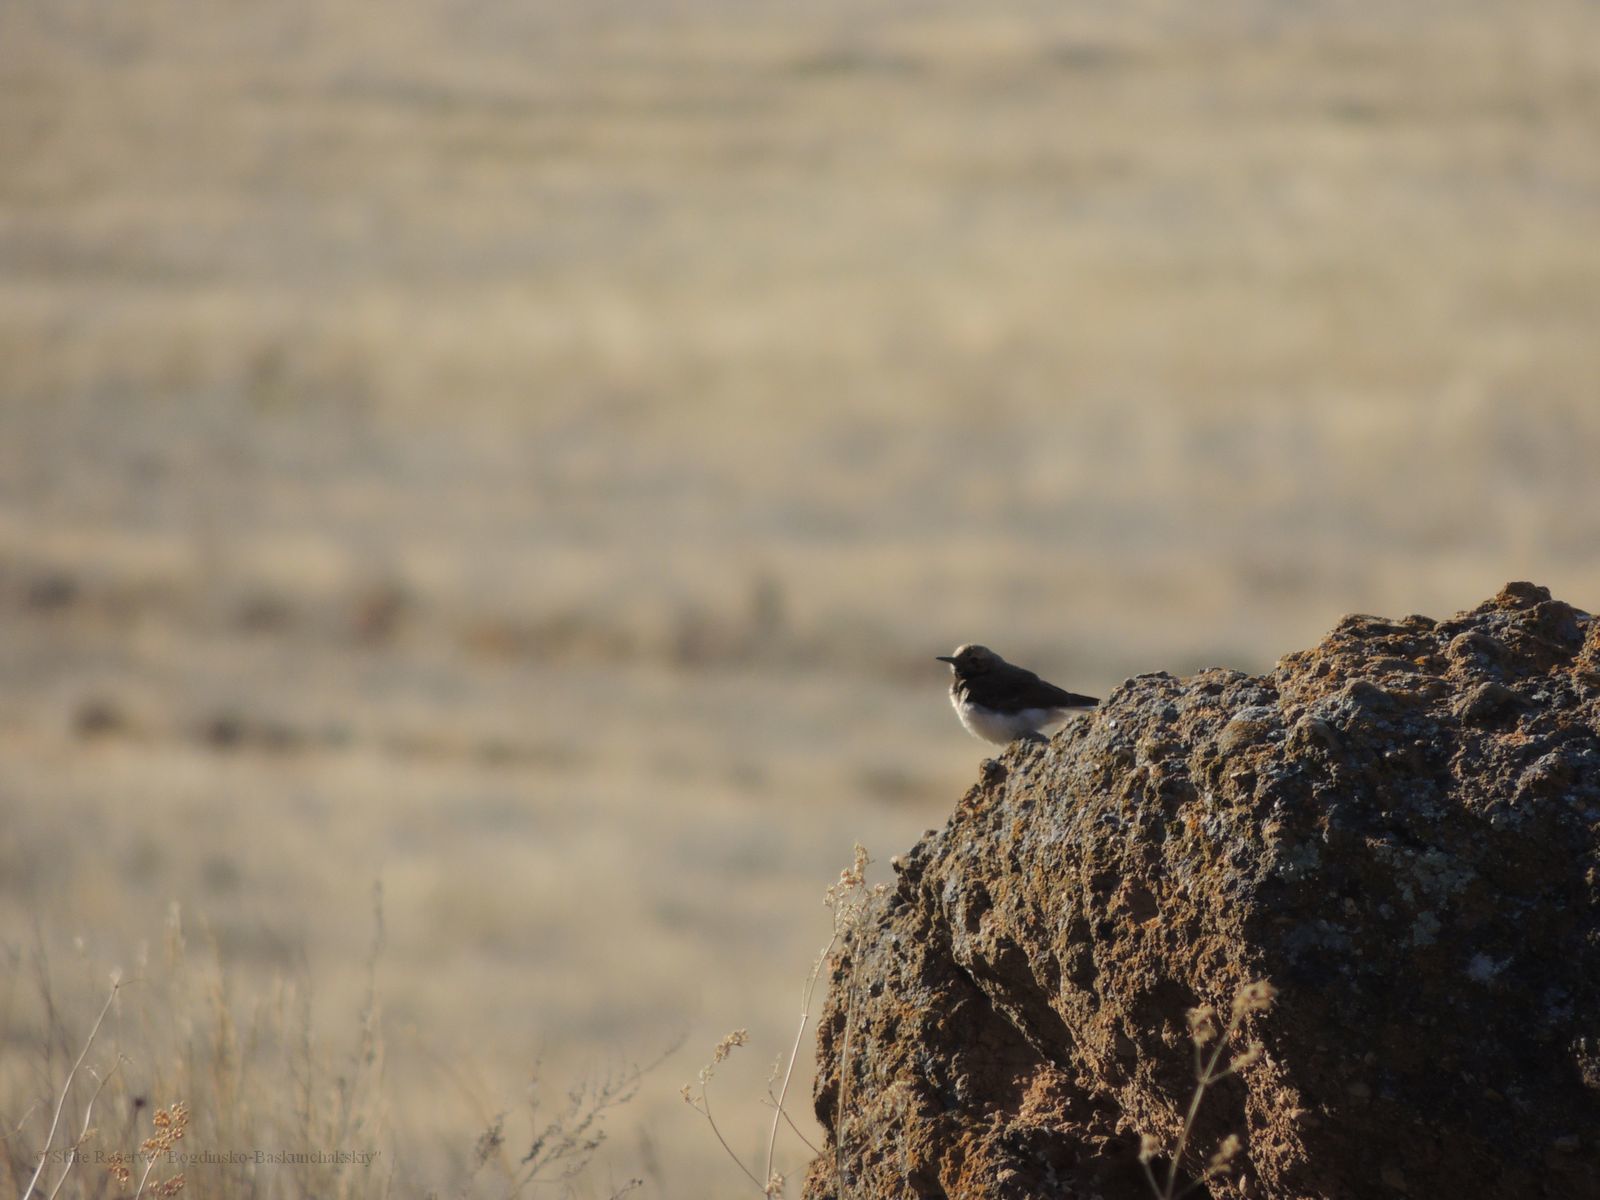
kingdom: Animalia
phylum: Chordata
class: Aves
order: Passeriformes
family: Muscicapidae
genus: Oenanthe
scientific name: Oenanthe pleschanka
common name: Pied wheatear
